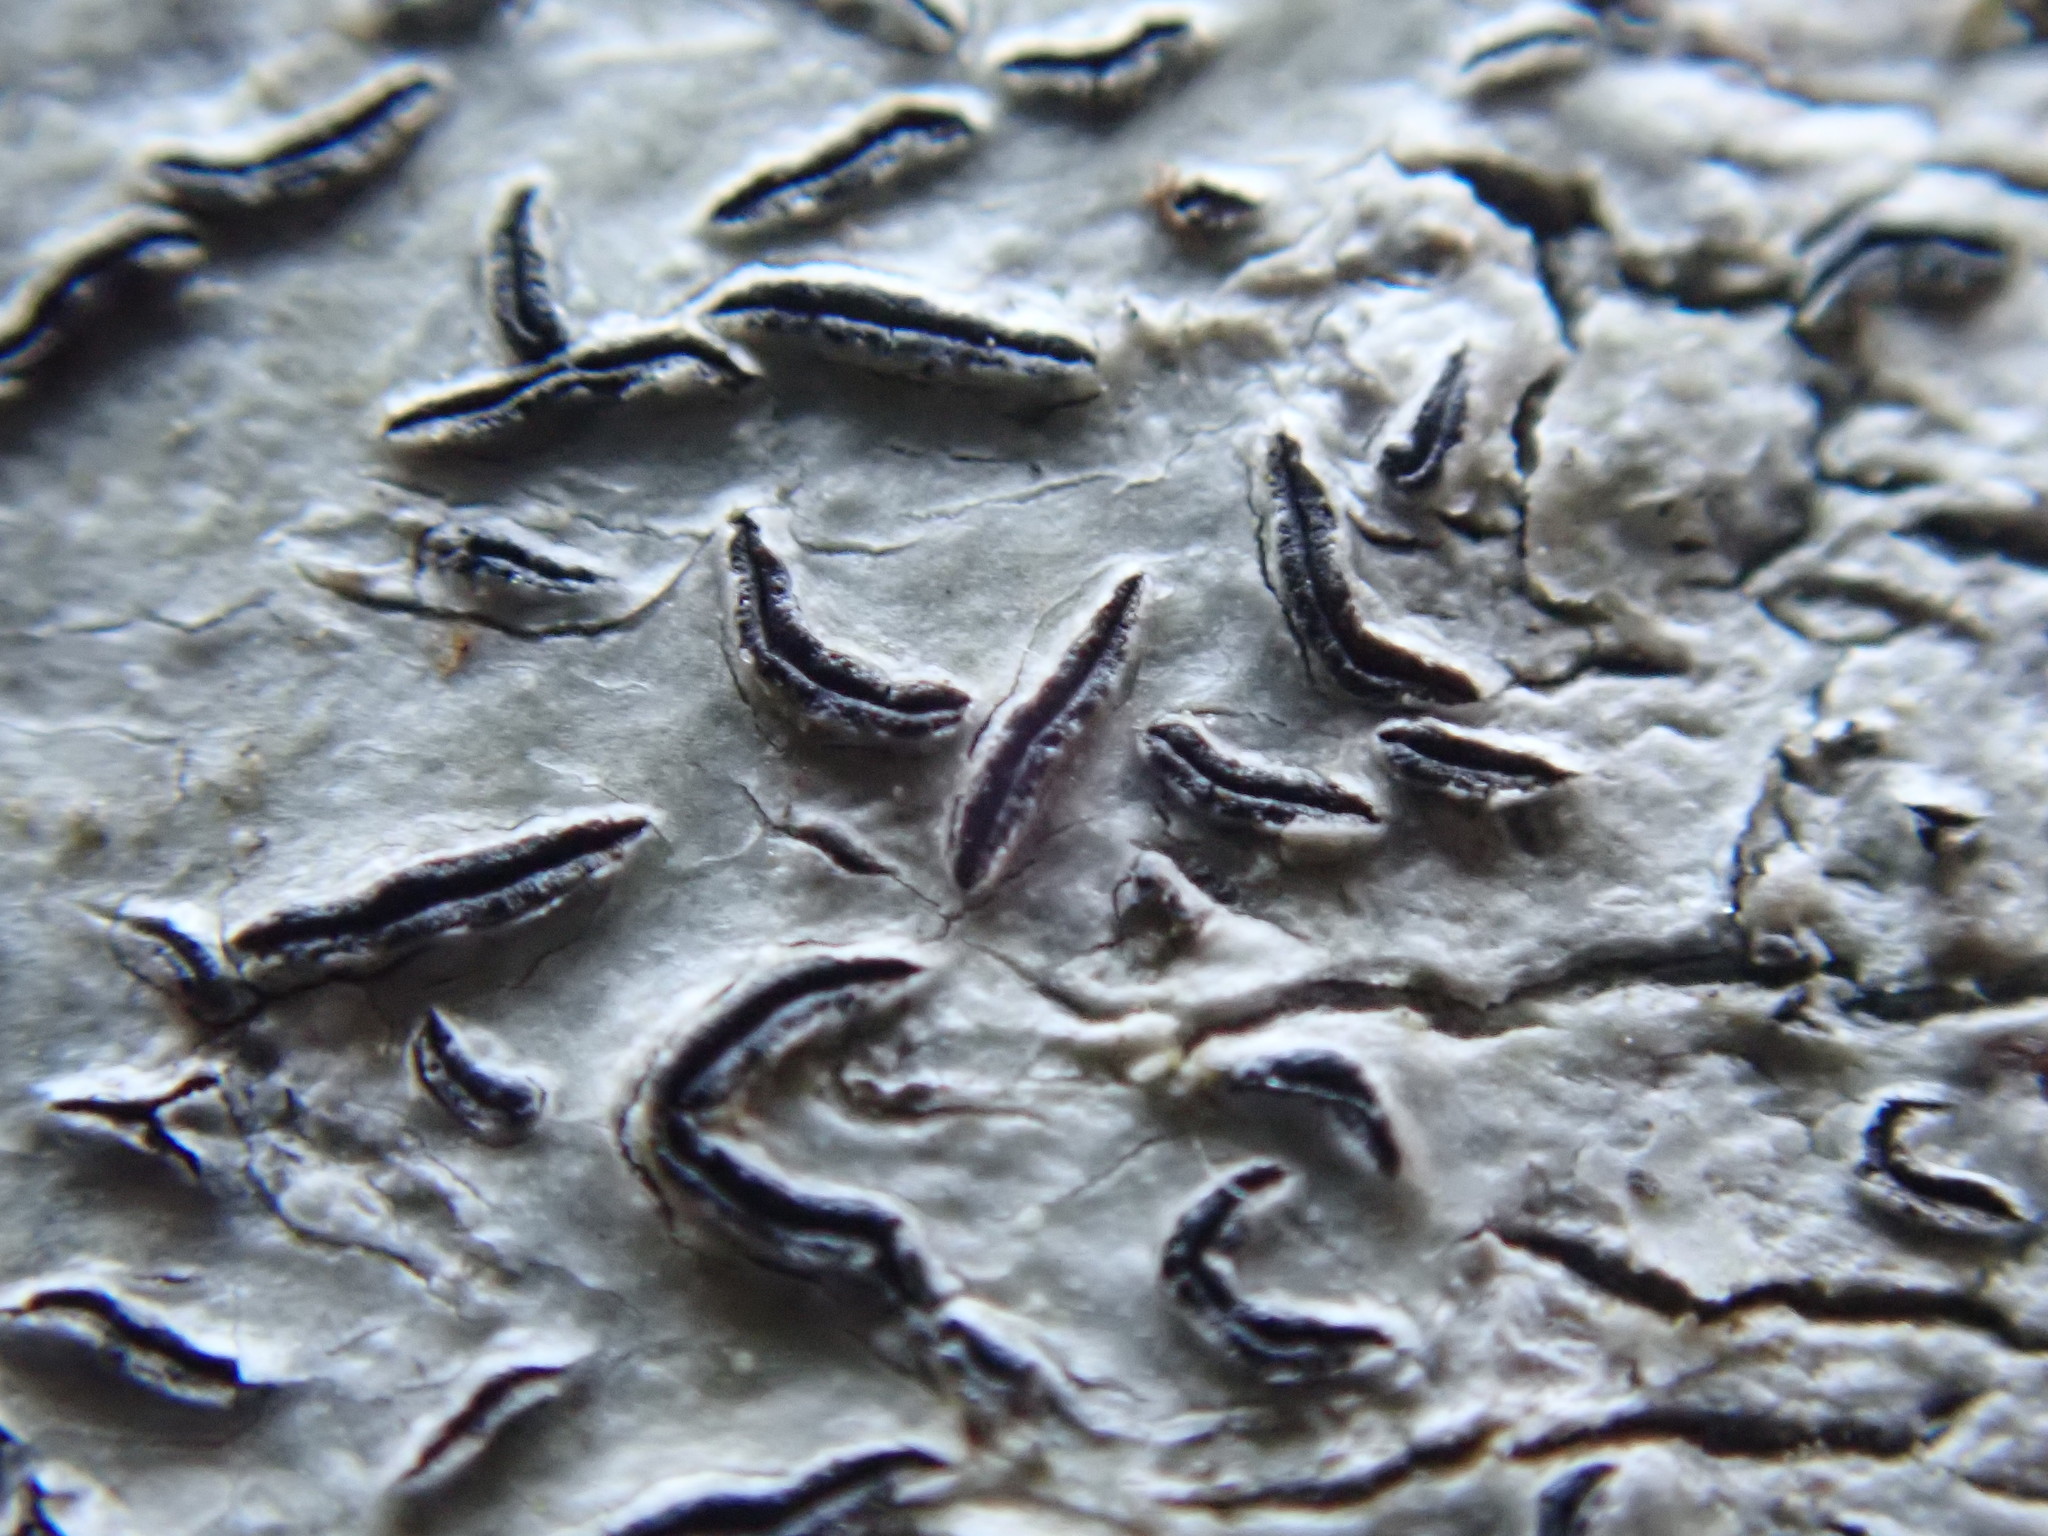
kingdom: Fungi
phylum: Ascomycota
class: Lecanoromycetes
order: Ostropales
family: Graphidaceae
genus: Graphis
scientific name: Graphis scripta
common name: Script lichen
